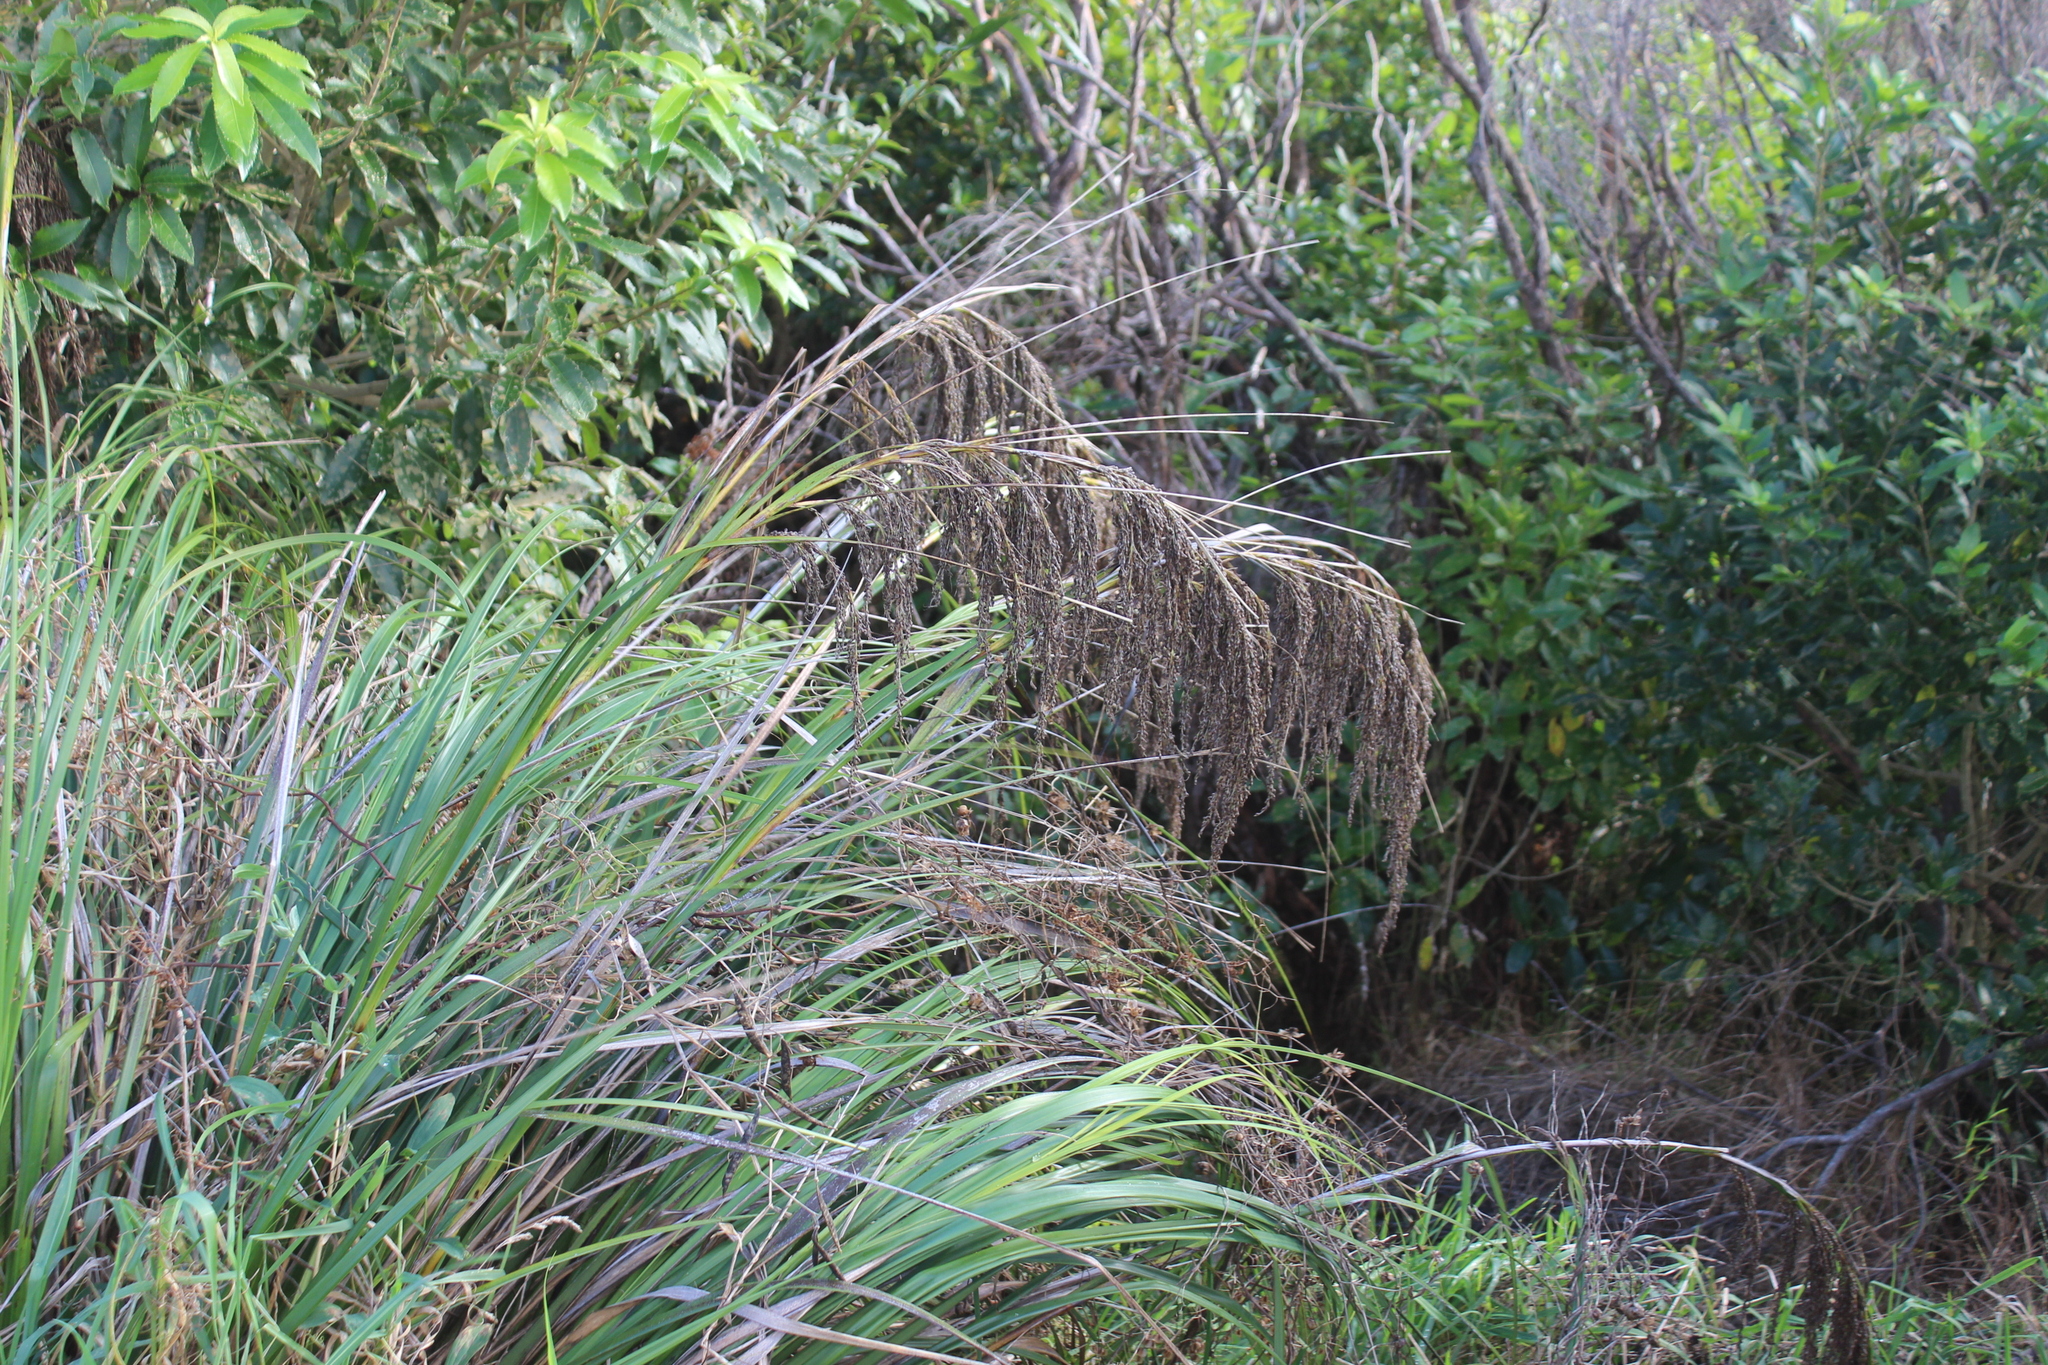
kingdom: Plantae
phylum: Tracheophyta
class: Liliopsida
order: Poales
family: Cyperaceae
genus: Gahnia
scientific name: Gahnia setifolia
